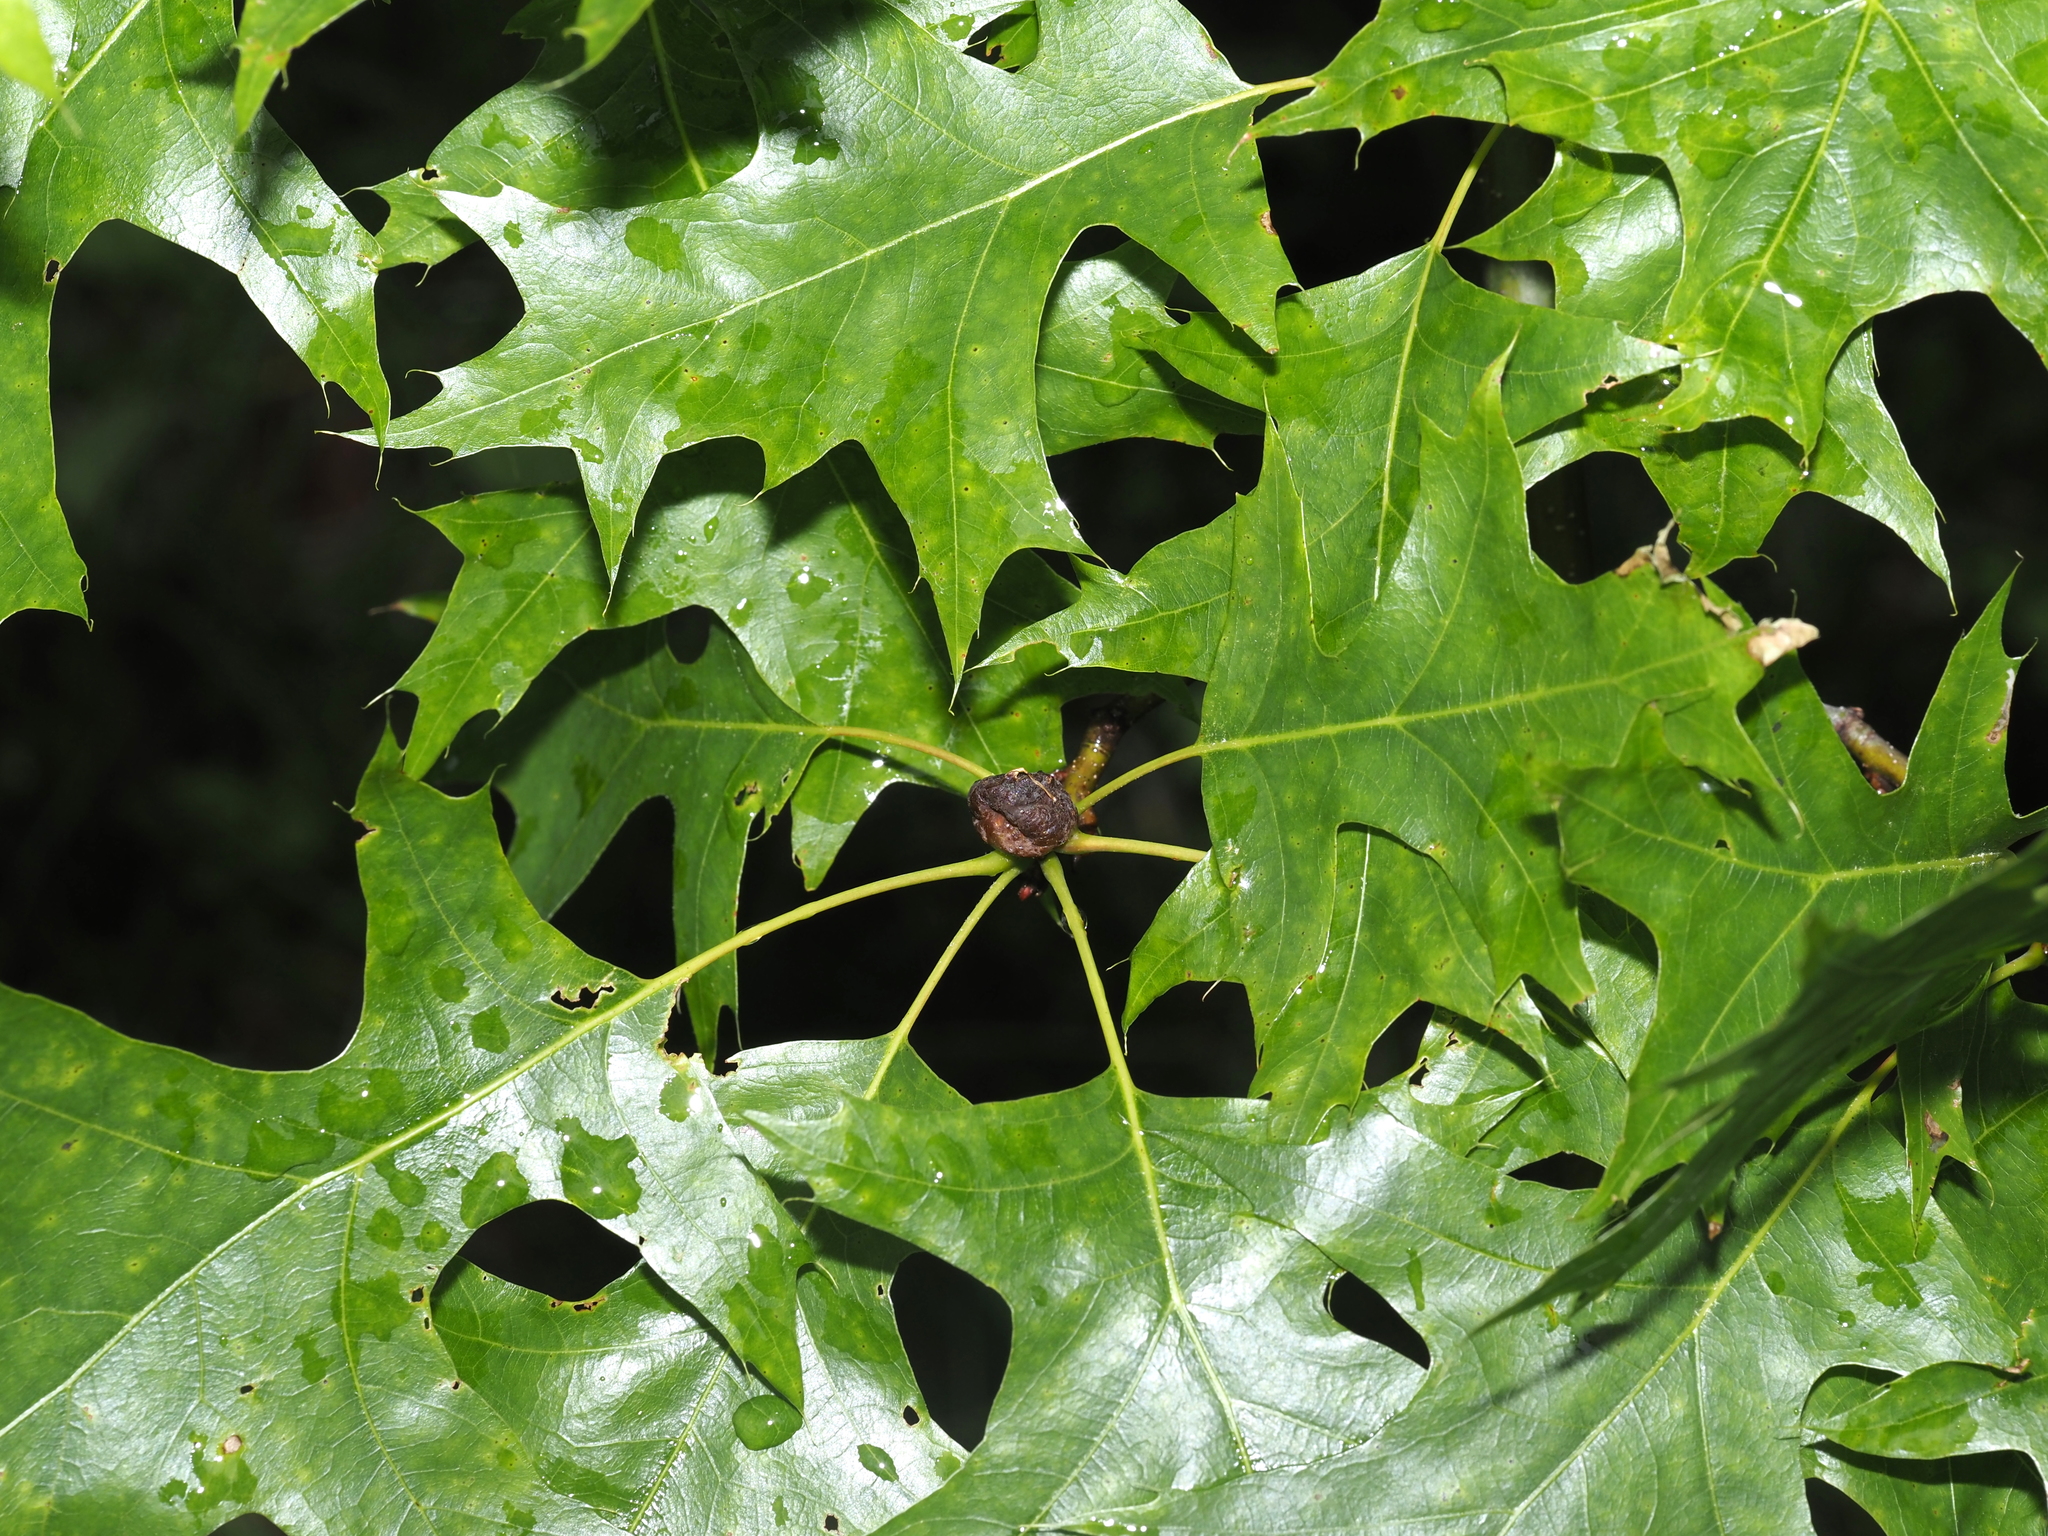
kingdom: Animalia
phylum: Arthropoda
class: Insecta
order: Hymenoptera
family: Cynipidae
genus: Dryocosmus
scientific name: Dryocosmus quercuspalustris
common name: Succulent oak gall wasp
